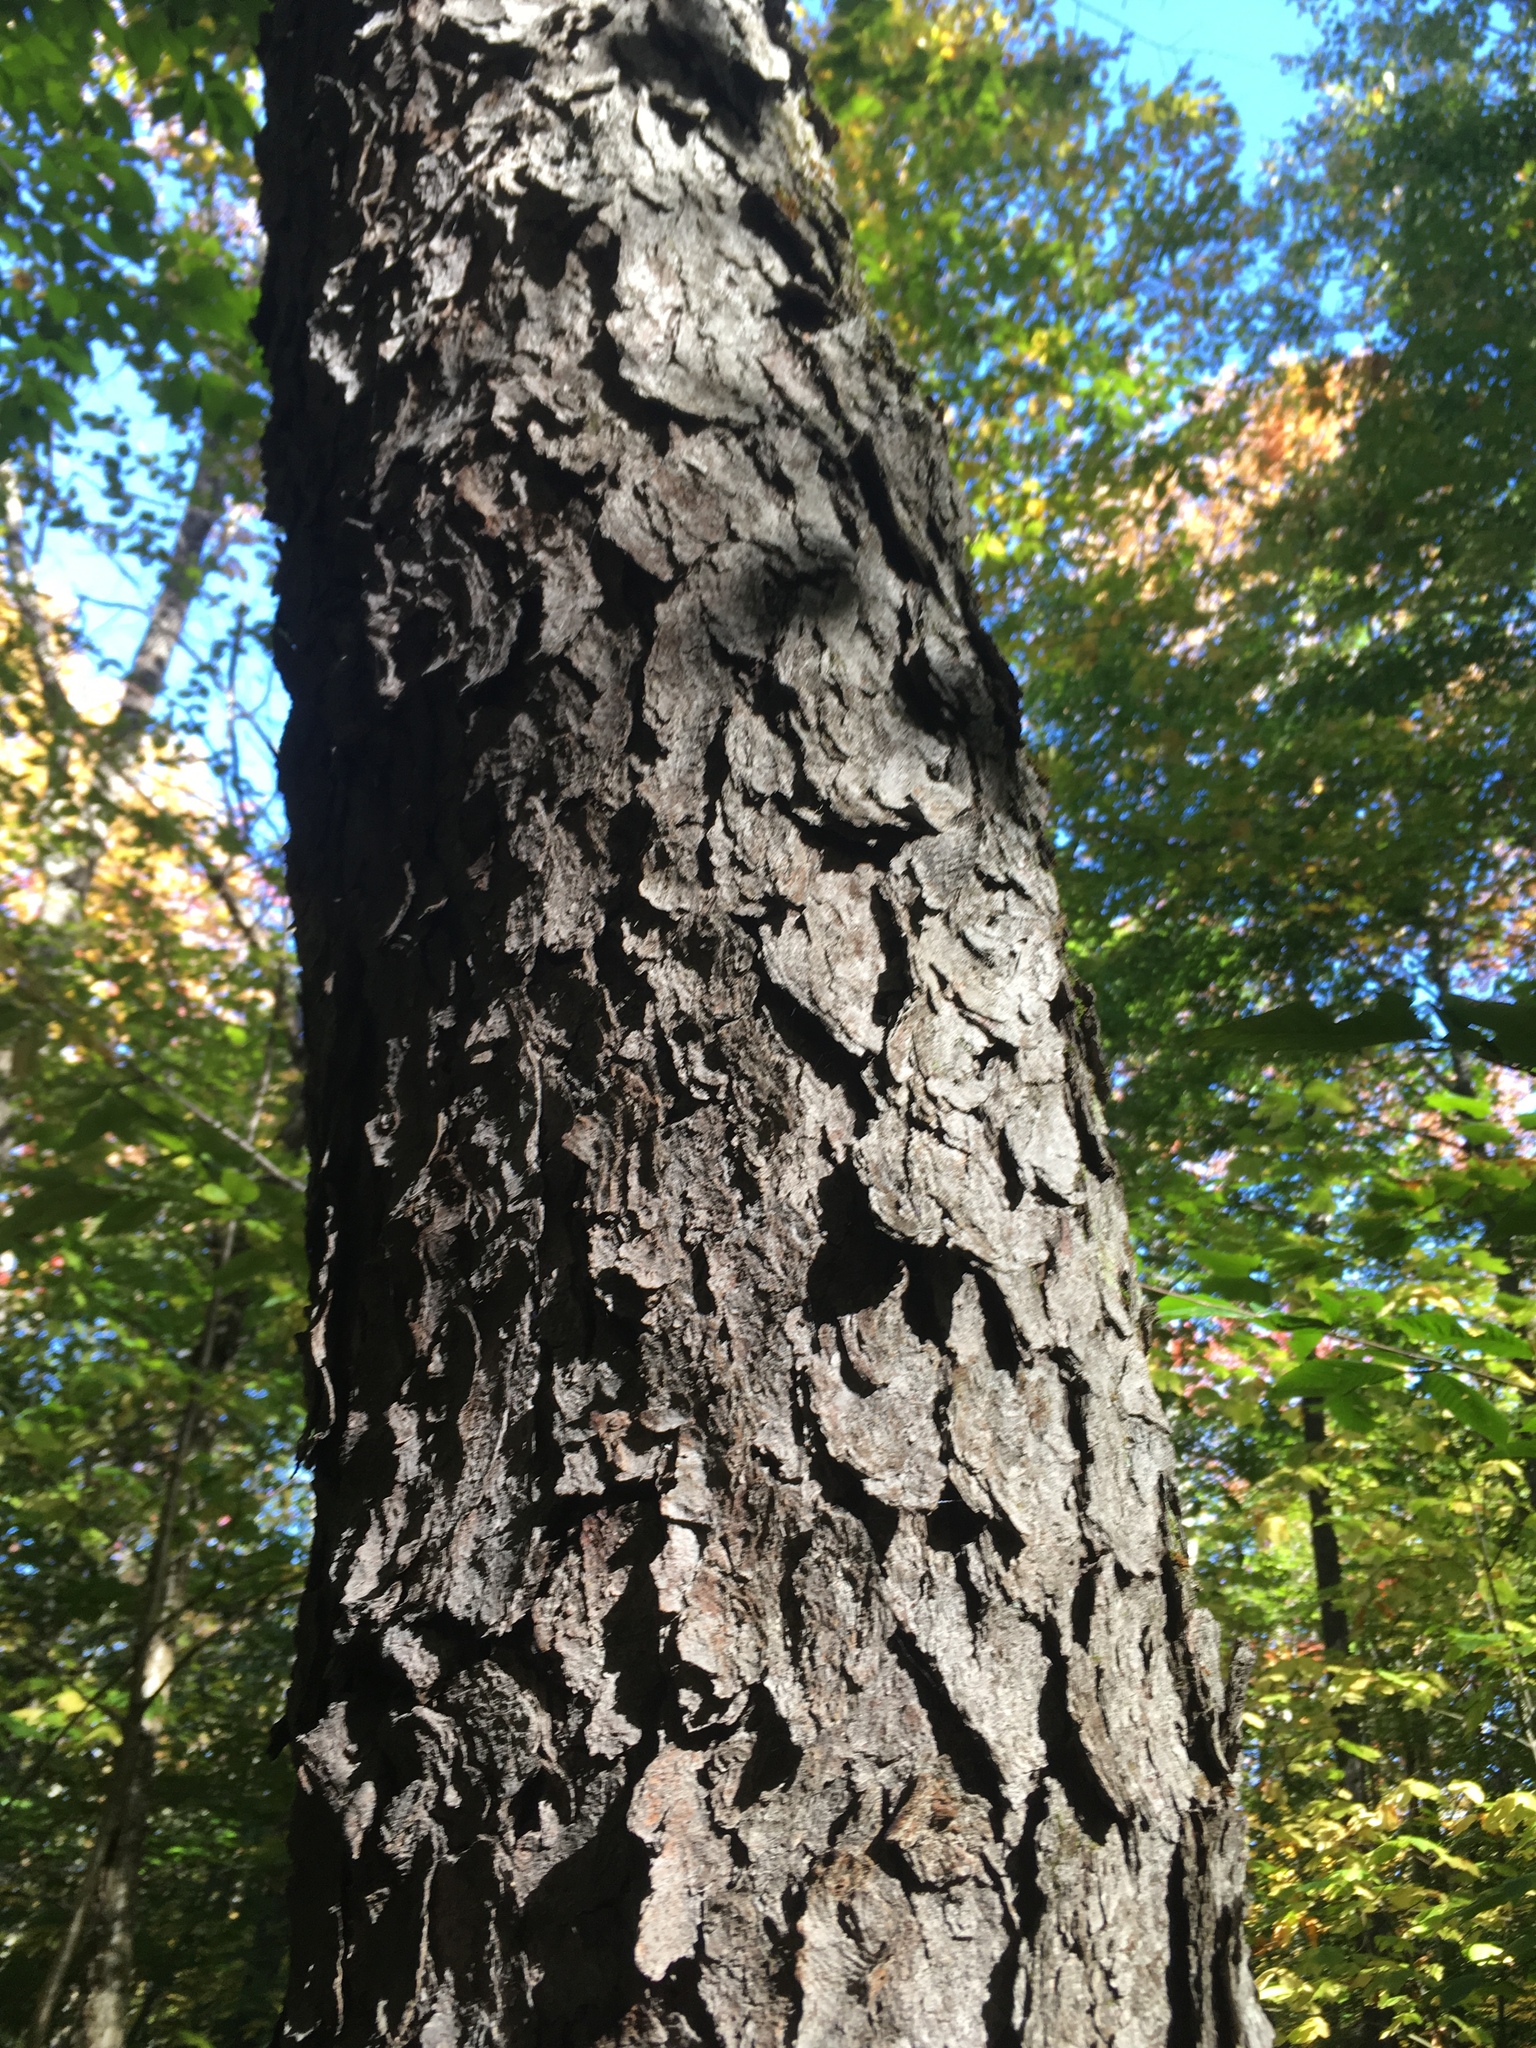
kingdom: Plantae
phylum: Tracheophyta
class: Magnoliopsida
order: Rosales
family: Rosaceae
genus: Prunus
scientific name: Prunus serotina
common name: Black cherry
